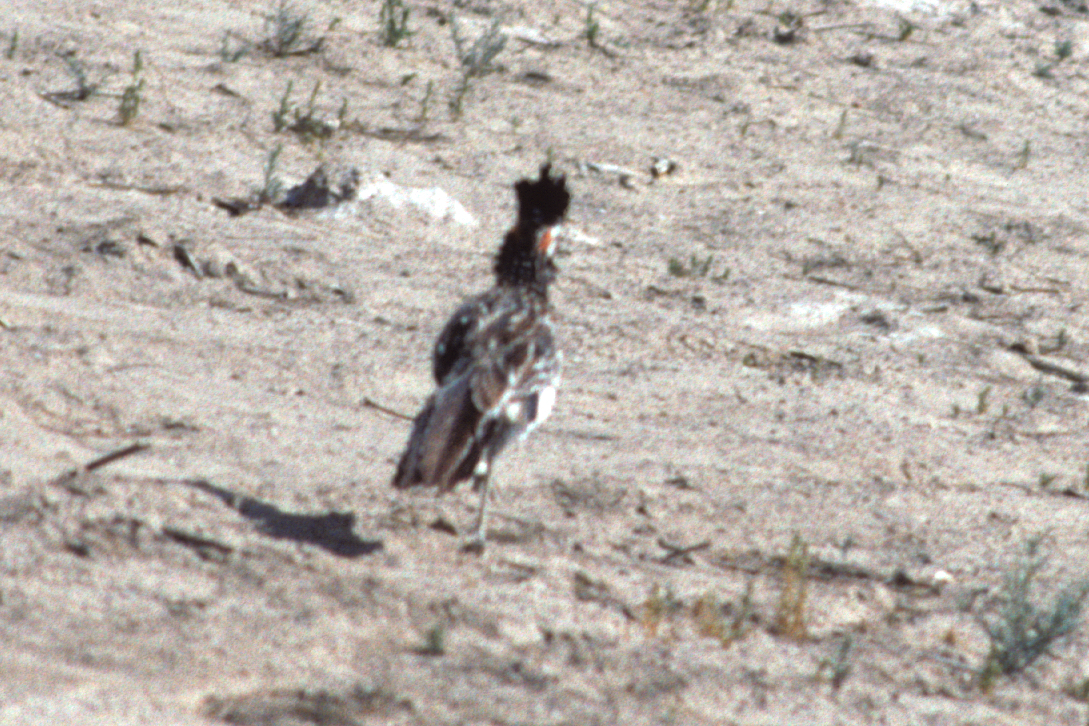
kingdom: Animalia
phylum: Chordata
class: Aves
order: Cuculiformes
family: Cuculidae
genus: Geococcyx
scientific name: Geococcyx californianus
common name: Greater roadrunner
